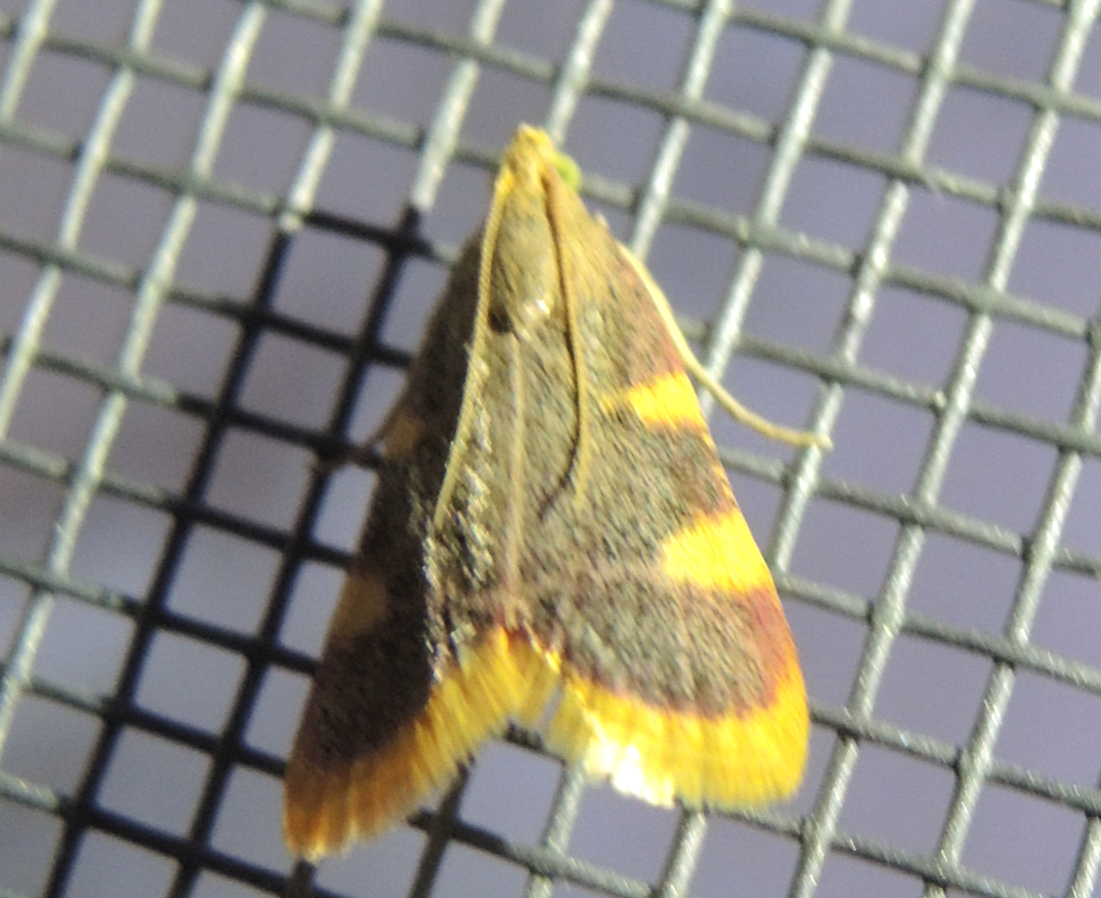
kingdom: Animalia
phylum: Arthropoda
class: Insecta
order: Lepidoptera
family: Pyralidae
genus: Hypsopygia
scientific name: Hypsopygia costalis
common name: Gold triangle
